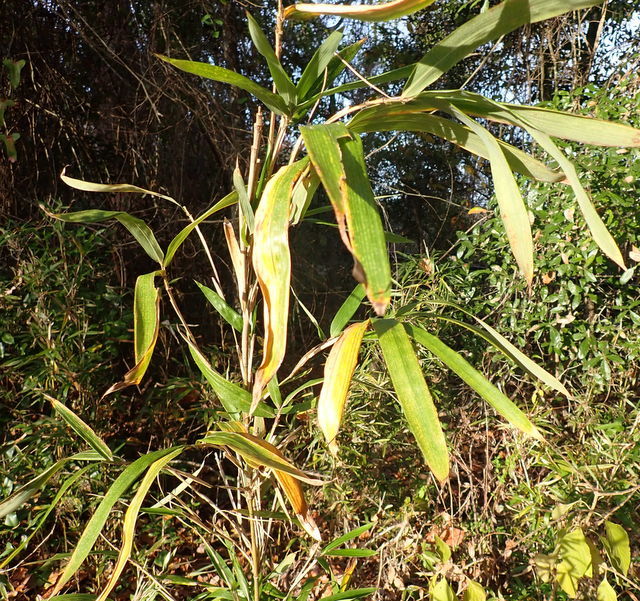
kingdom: Plantae
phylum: Tracheophyta
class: Liliopsida
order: Poales
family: Poaceae
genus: Arundinaria
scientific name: Arundinaria tecta
